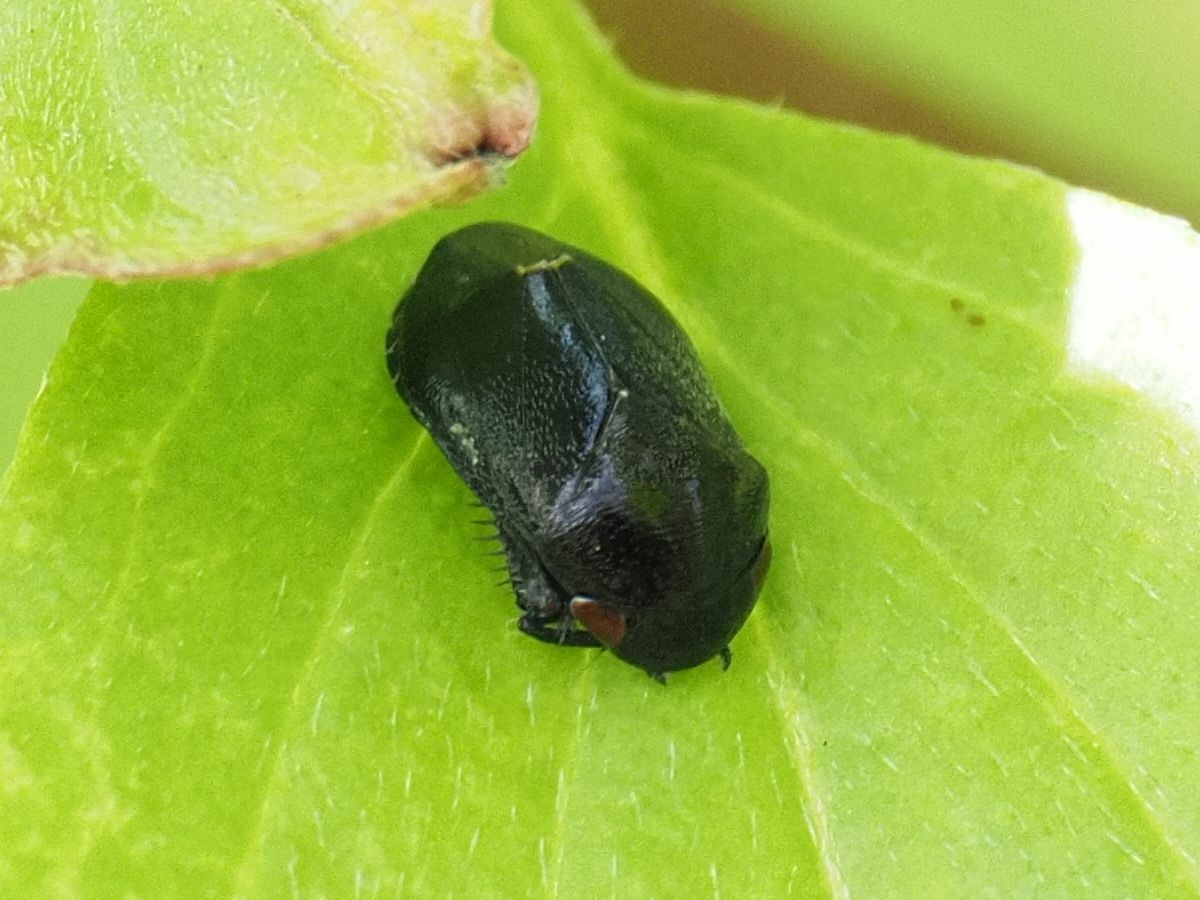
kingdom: Animalia
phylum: Arthropoda
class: Insecta
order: Hemiptera
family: Cicadellidae
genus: Penthimia
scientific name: Penthimia nigra
